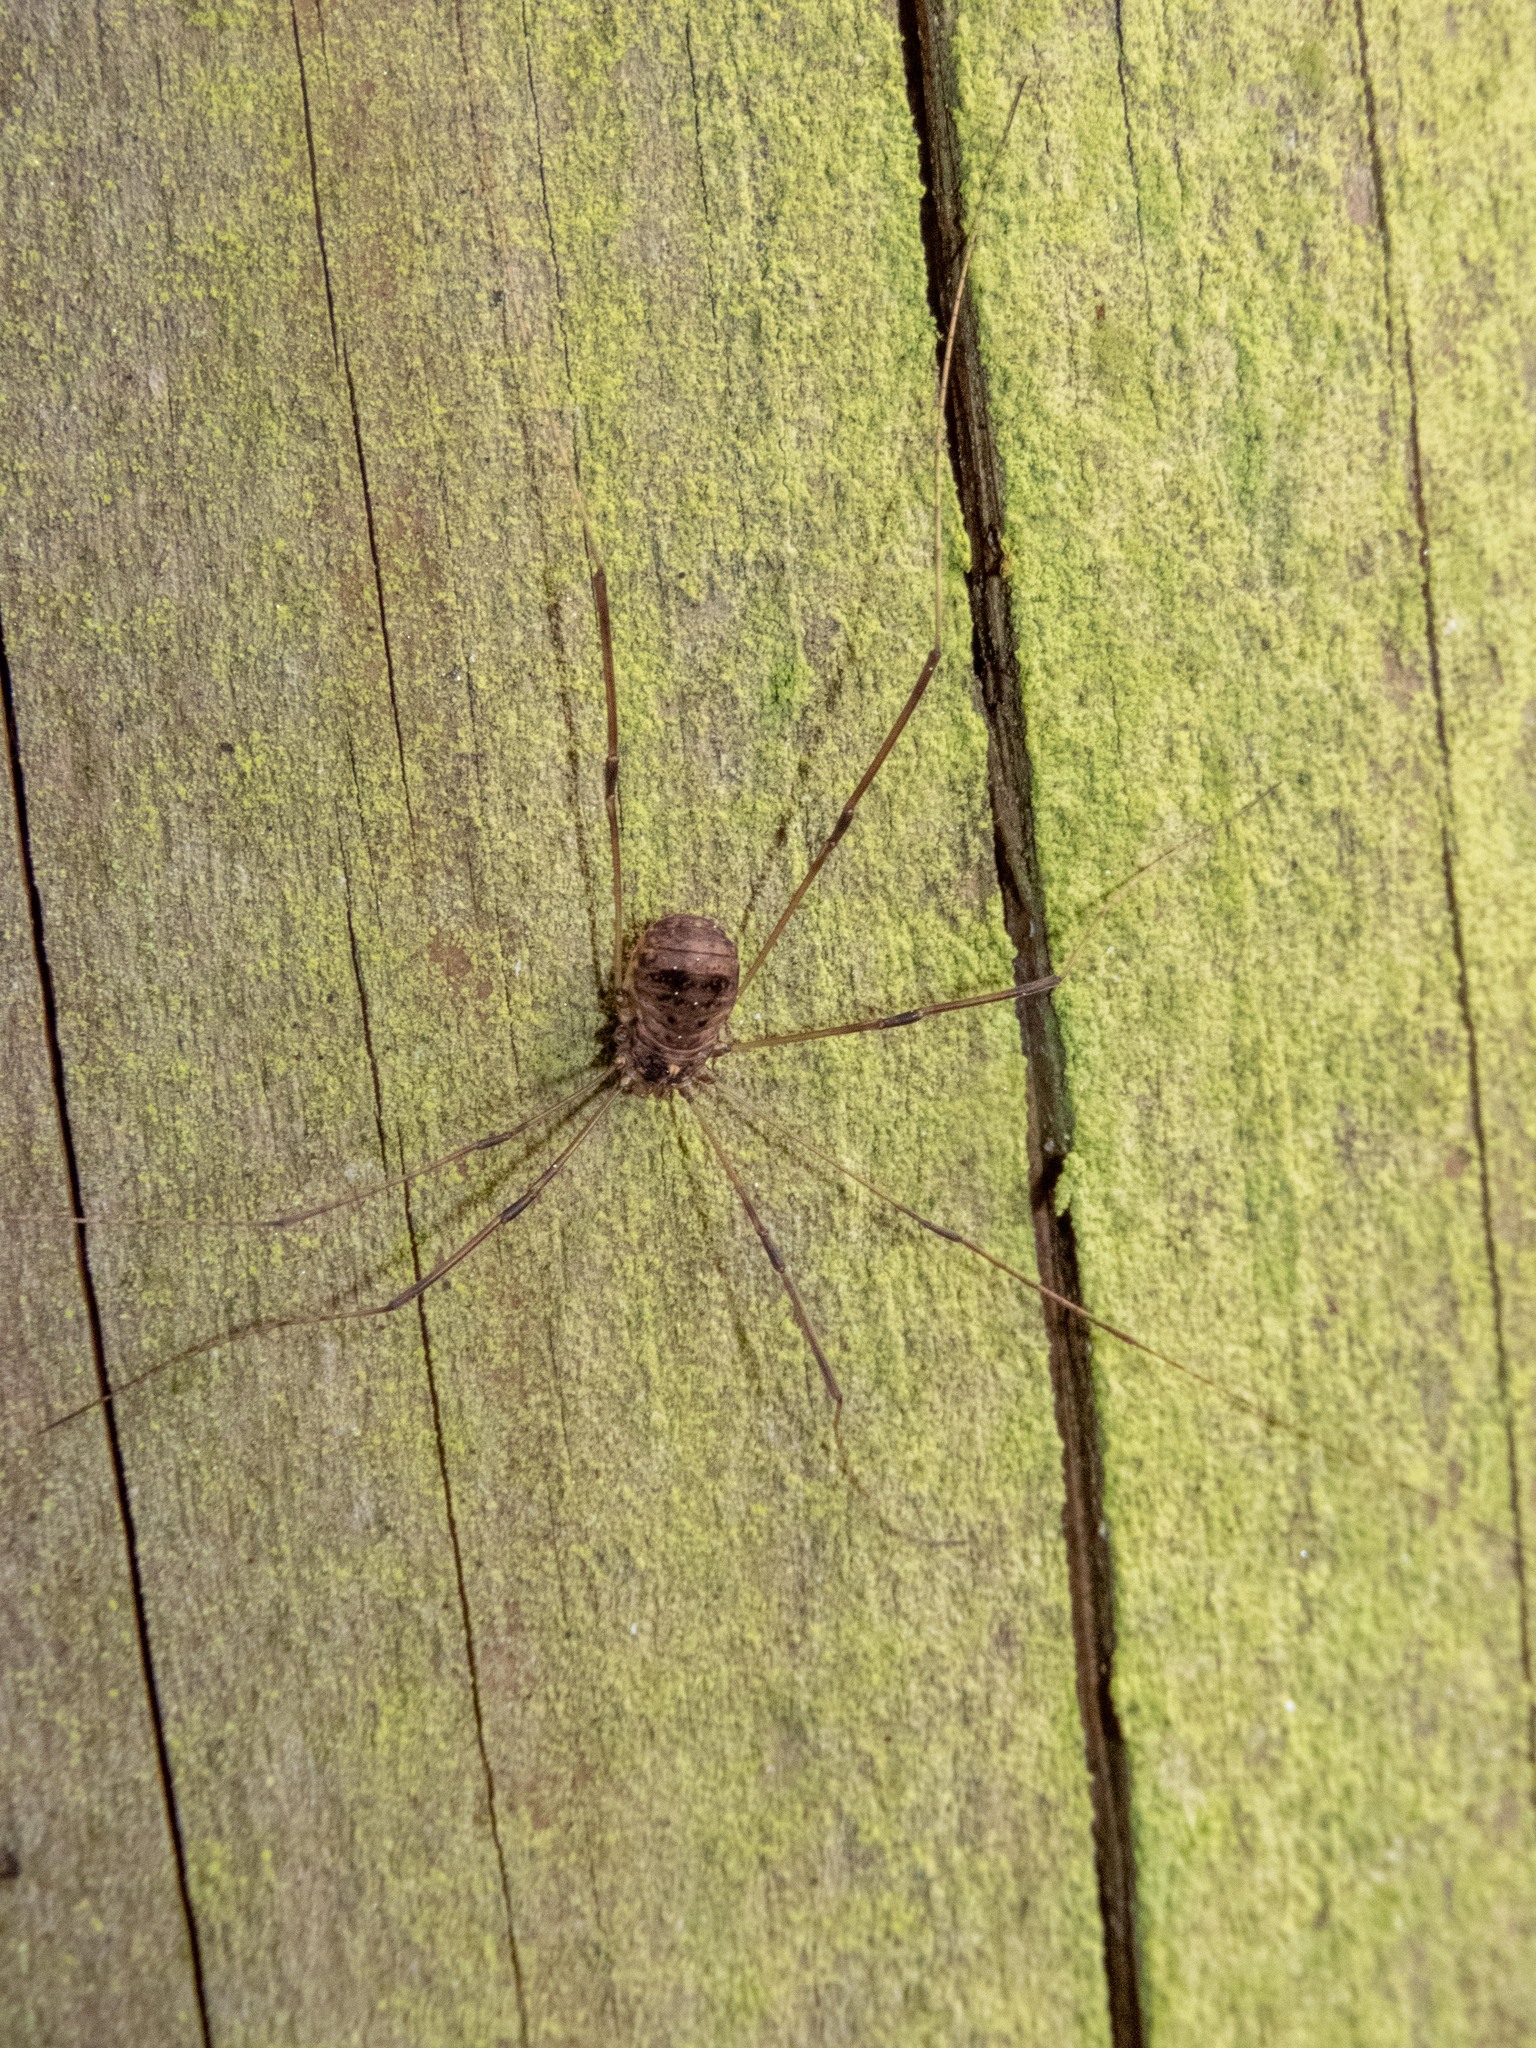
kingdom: Animalia
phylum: Arthropoda
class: Arachnida
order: Opiliones
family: Sclerosomatidae
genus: Leiobunum
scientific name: Leiobunum blackwalli
